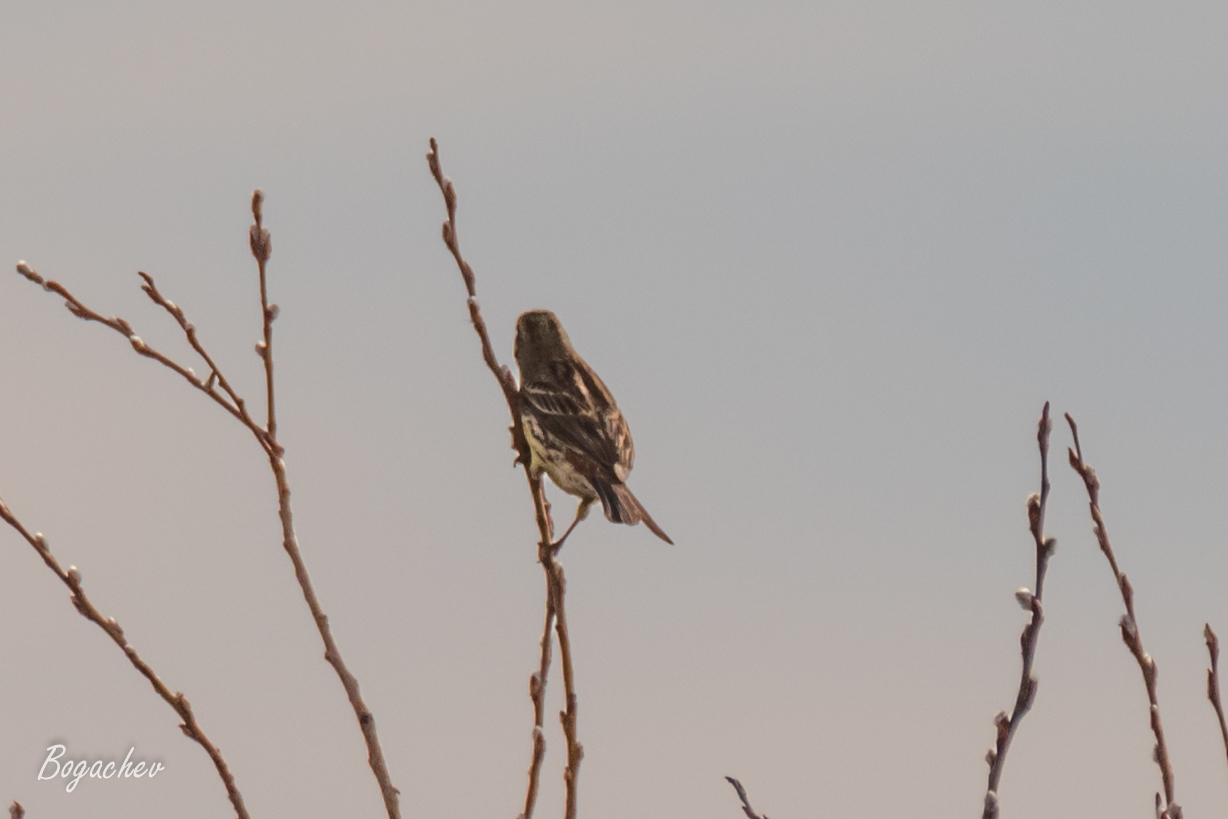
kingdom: Animalia
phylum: Chordata
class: Aves
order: Passeriformes
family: Emberizidae
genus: Emberiza
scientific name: Emberiza citrinella
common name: Yellowhammer
